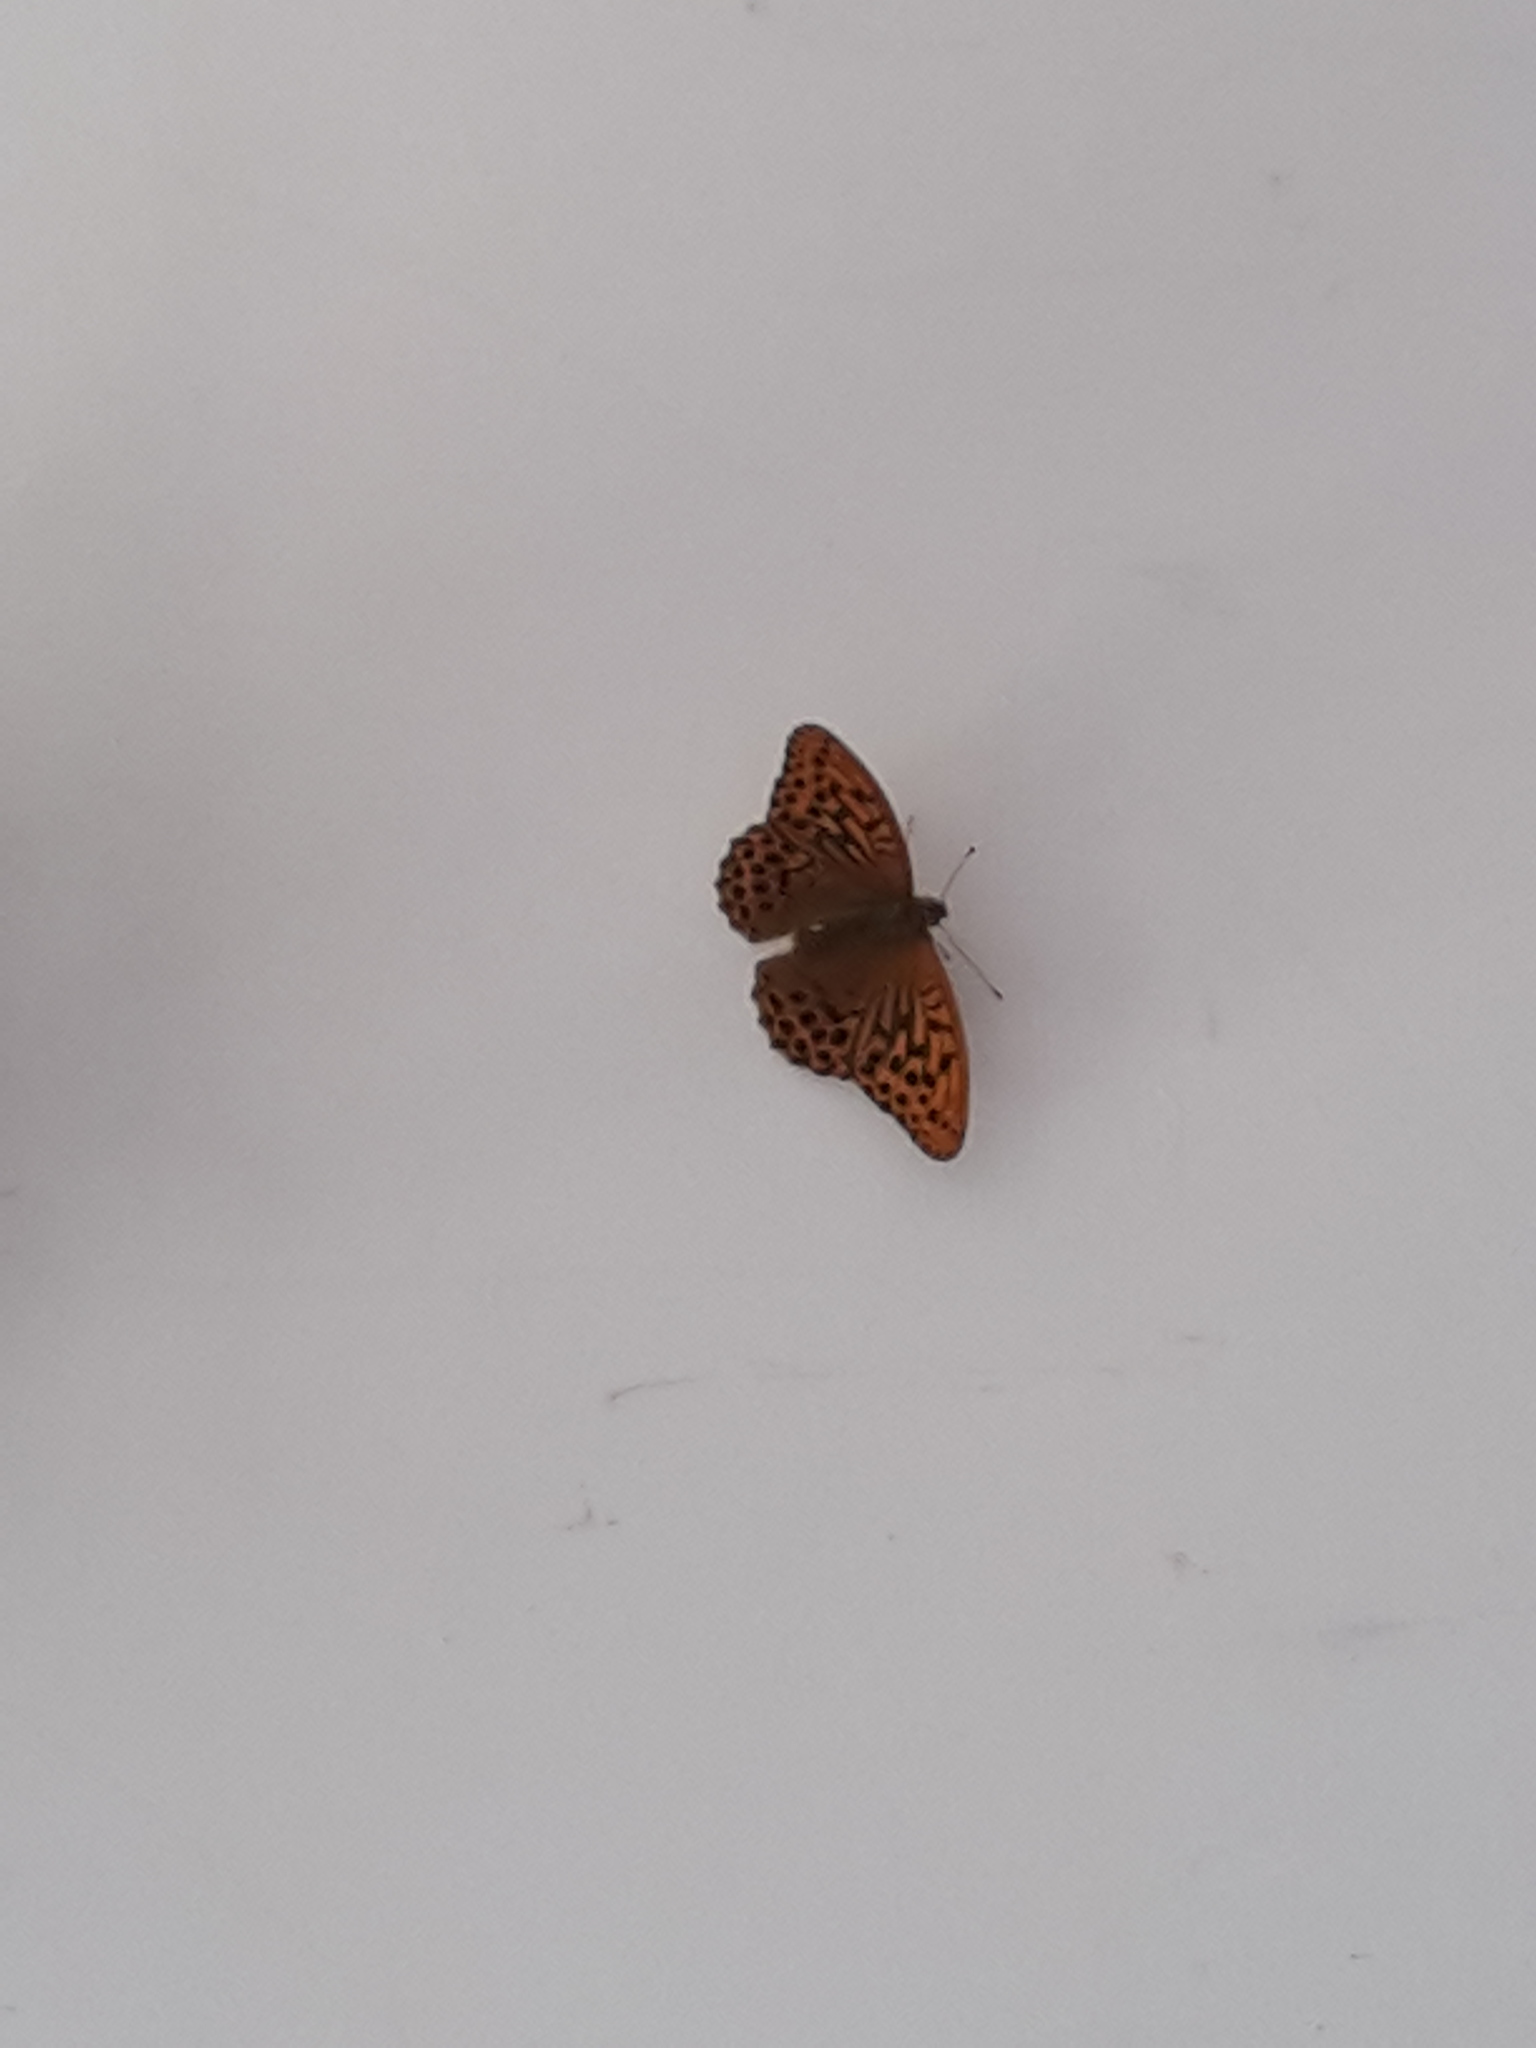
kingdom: Animalia
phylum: Arthropoda
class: Insecta
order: Lepidoptera
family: Nymphalidae
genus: Argynnis
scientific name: Argynnis paphia
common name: Silver-washed fritillary
